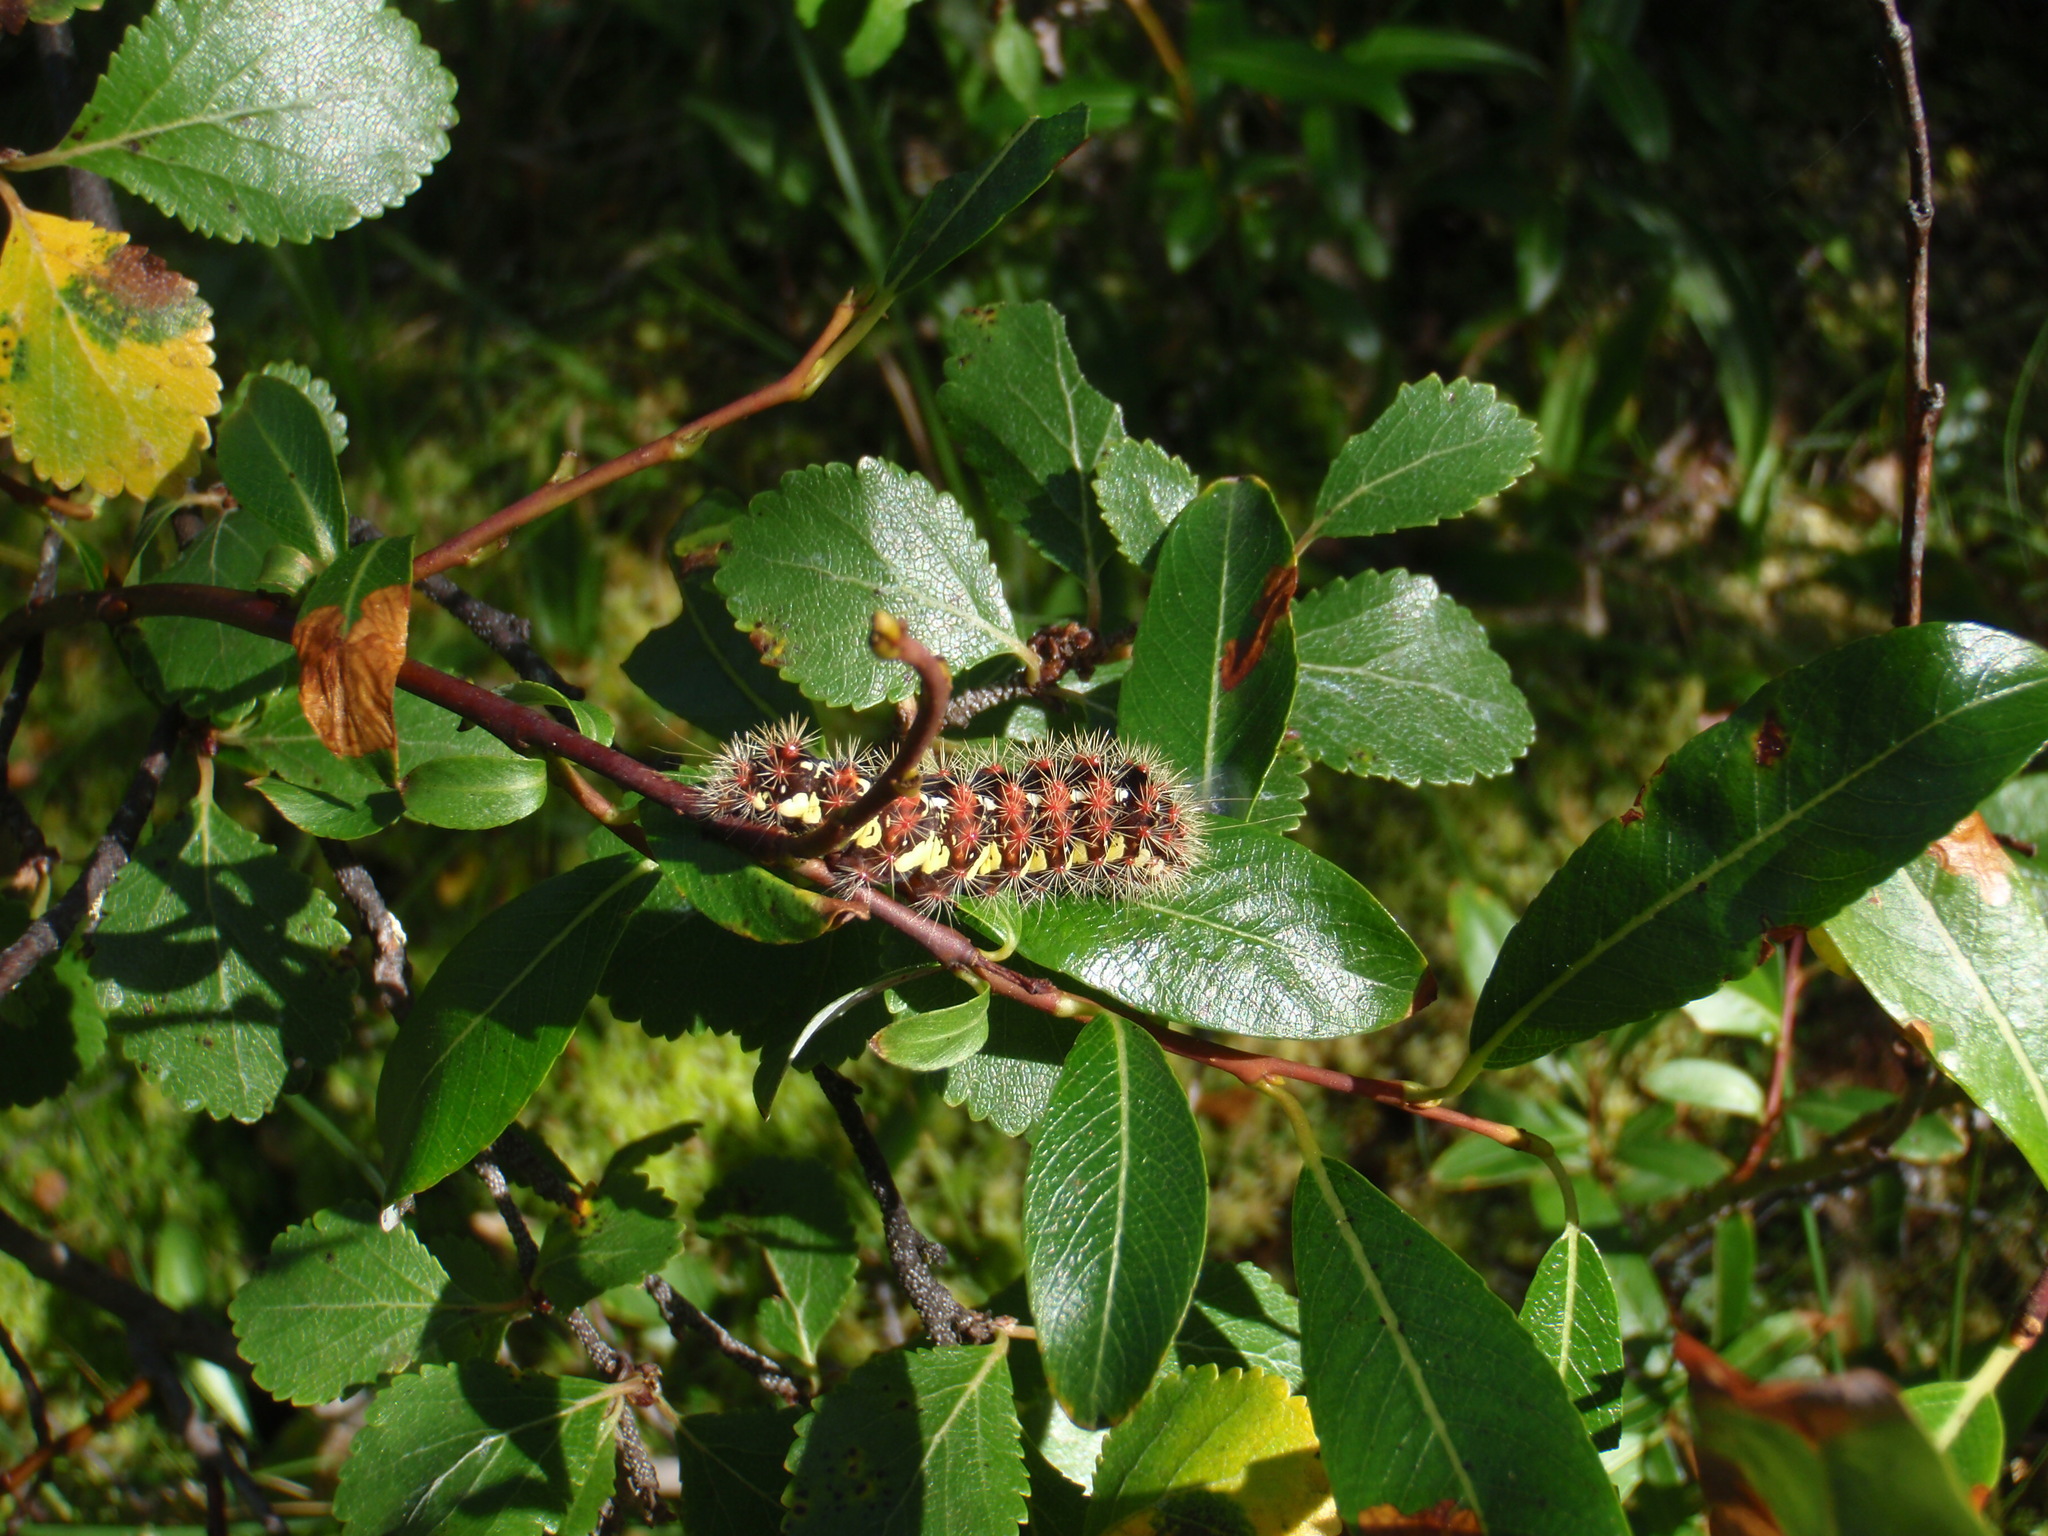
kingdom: Animalia
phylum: Arthropoda
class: Insecta
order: Lepidoptera
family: Noctuidae
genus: Acronicta
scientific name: Acronicta oblinita
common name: Smeared dagger
